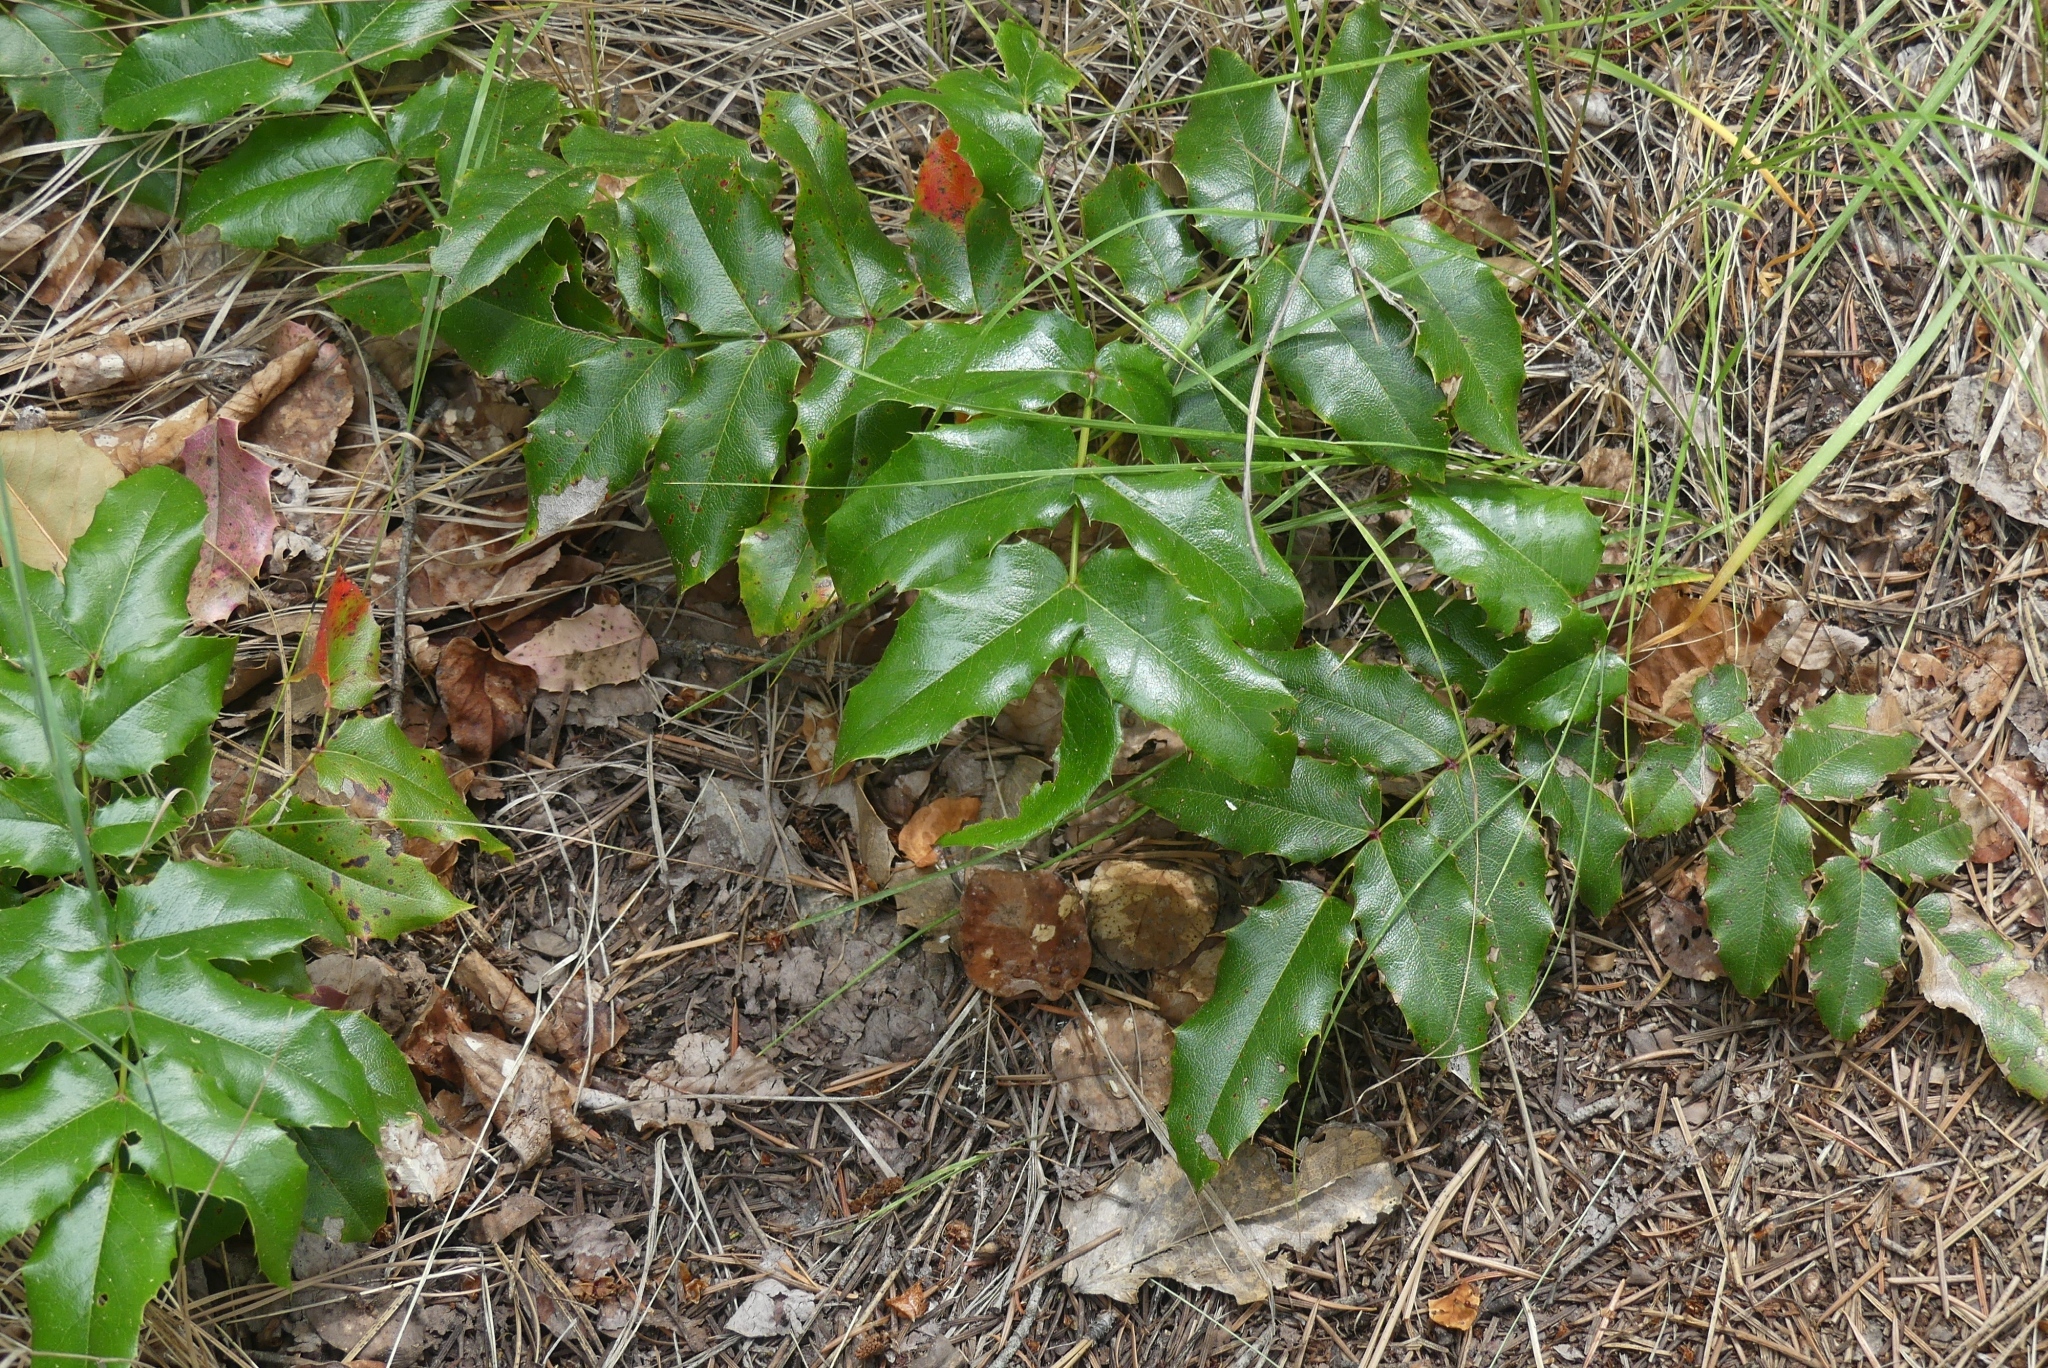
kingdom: Plantae
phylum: Tracheophyta
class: Magnoliopsida
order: Ranunculales
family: Berberidaceae
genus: Mahonia
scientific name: Mahonia aquifolium
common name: Oregon-grape
